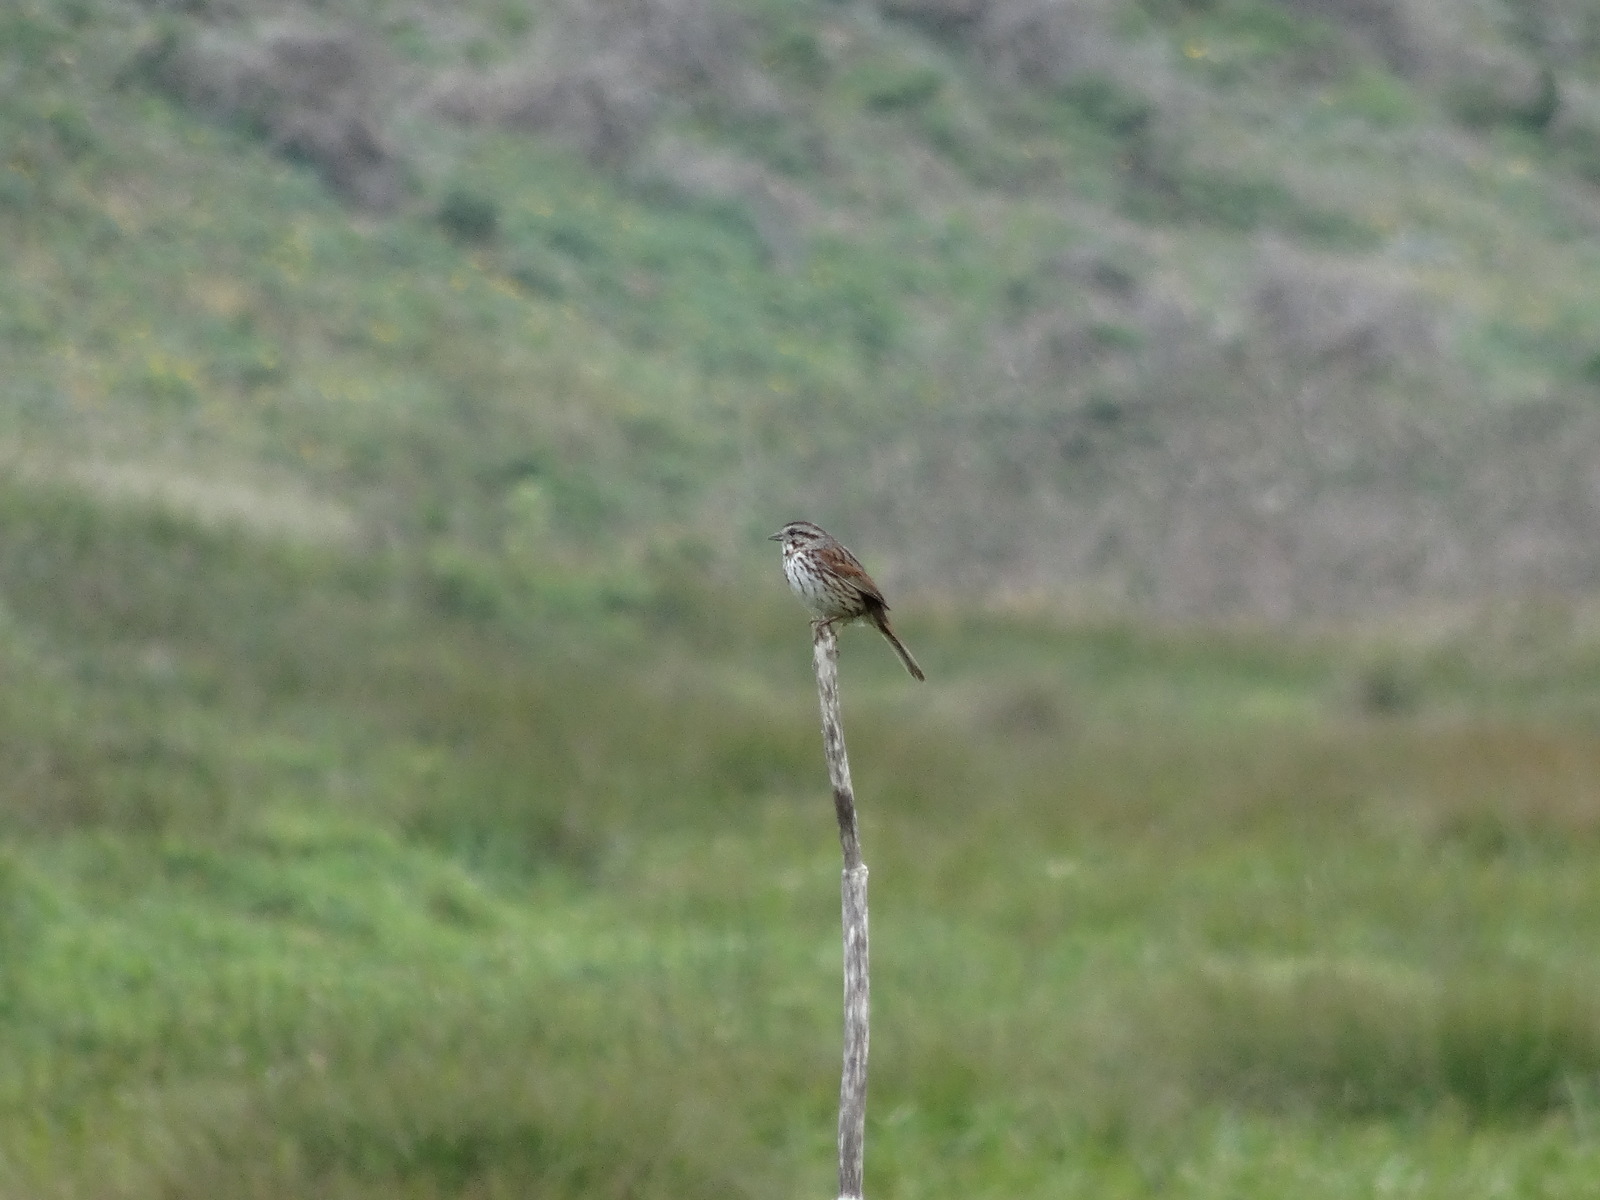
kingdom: Animalia
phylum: Chordata
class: Aves
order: Passeriformes
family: Passerellidae
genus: Melospiza
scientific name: Melospiza melodia
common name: Song sparrow
